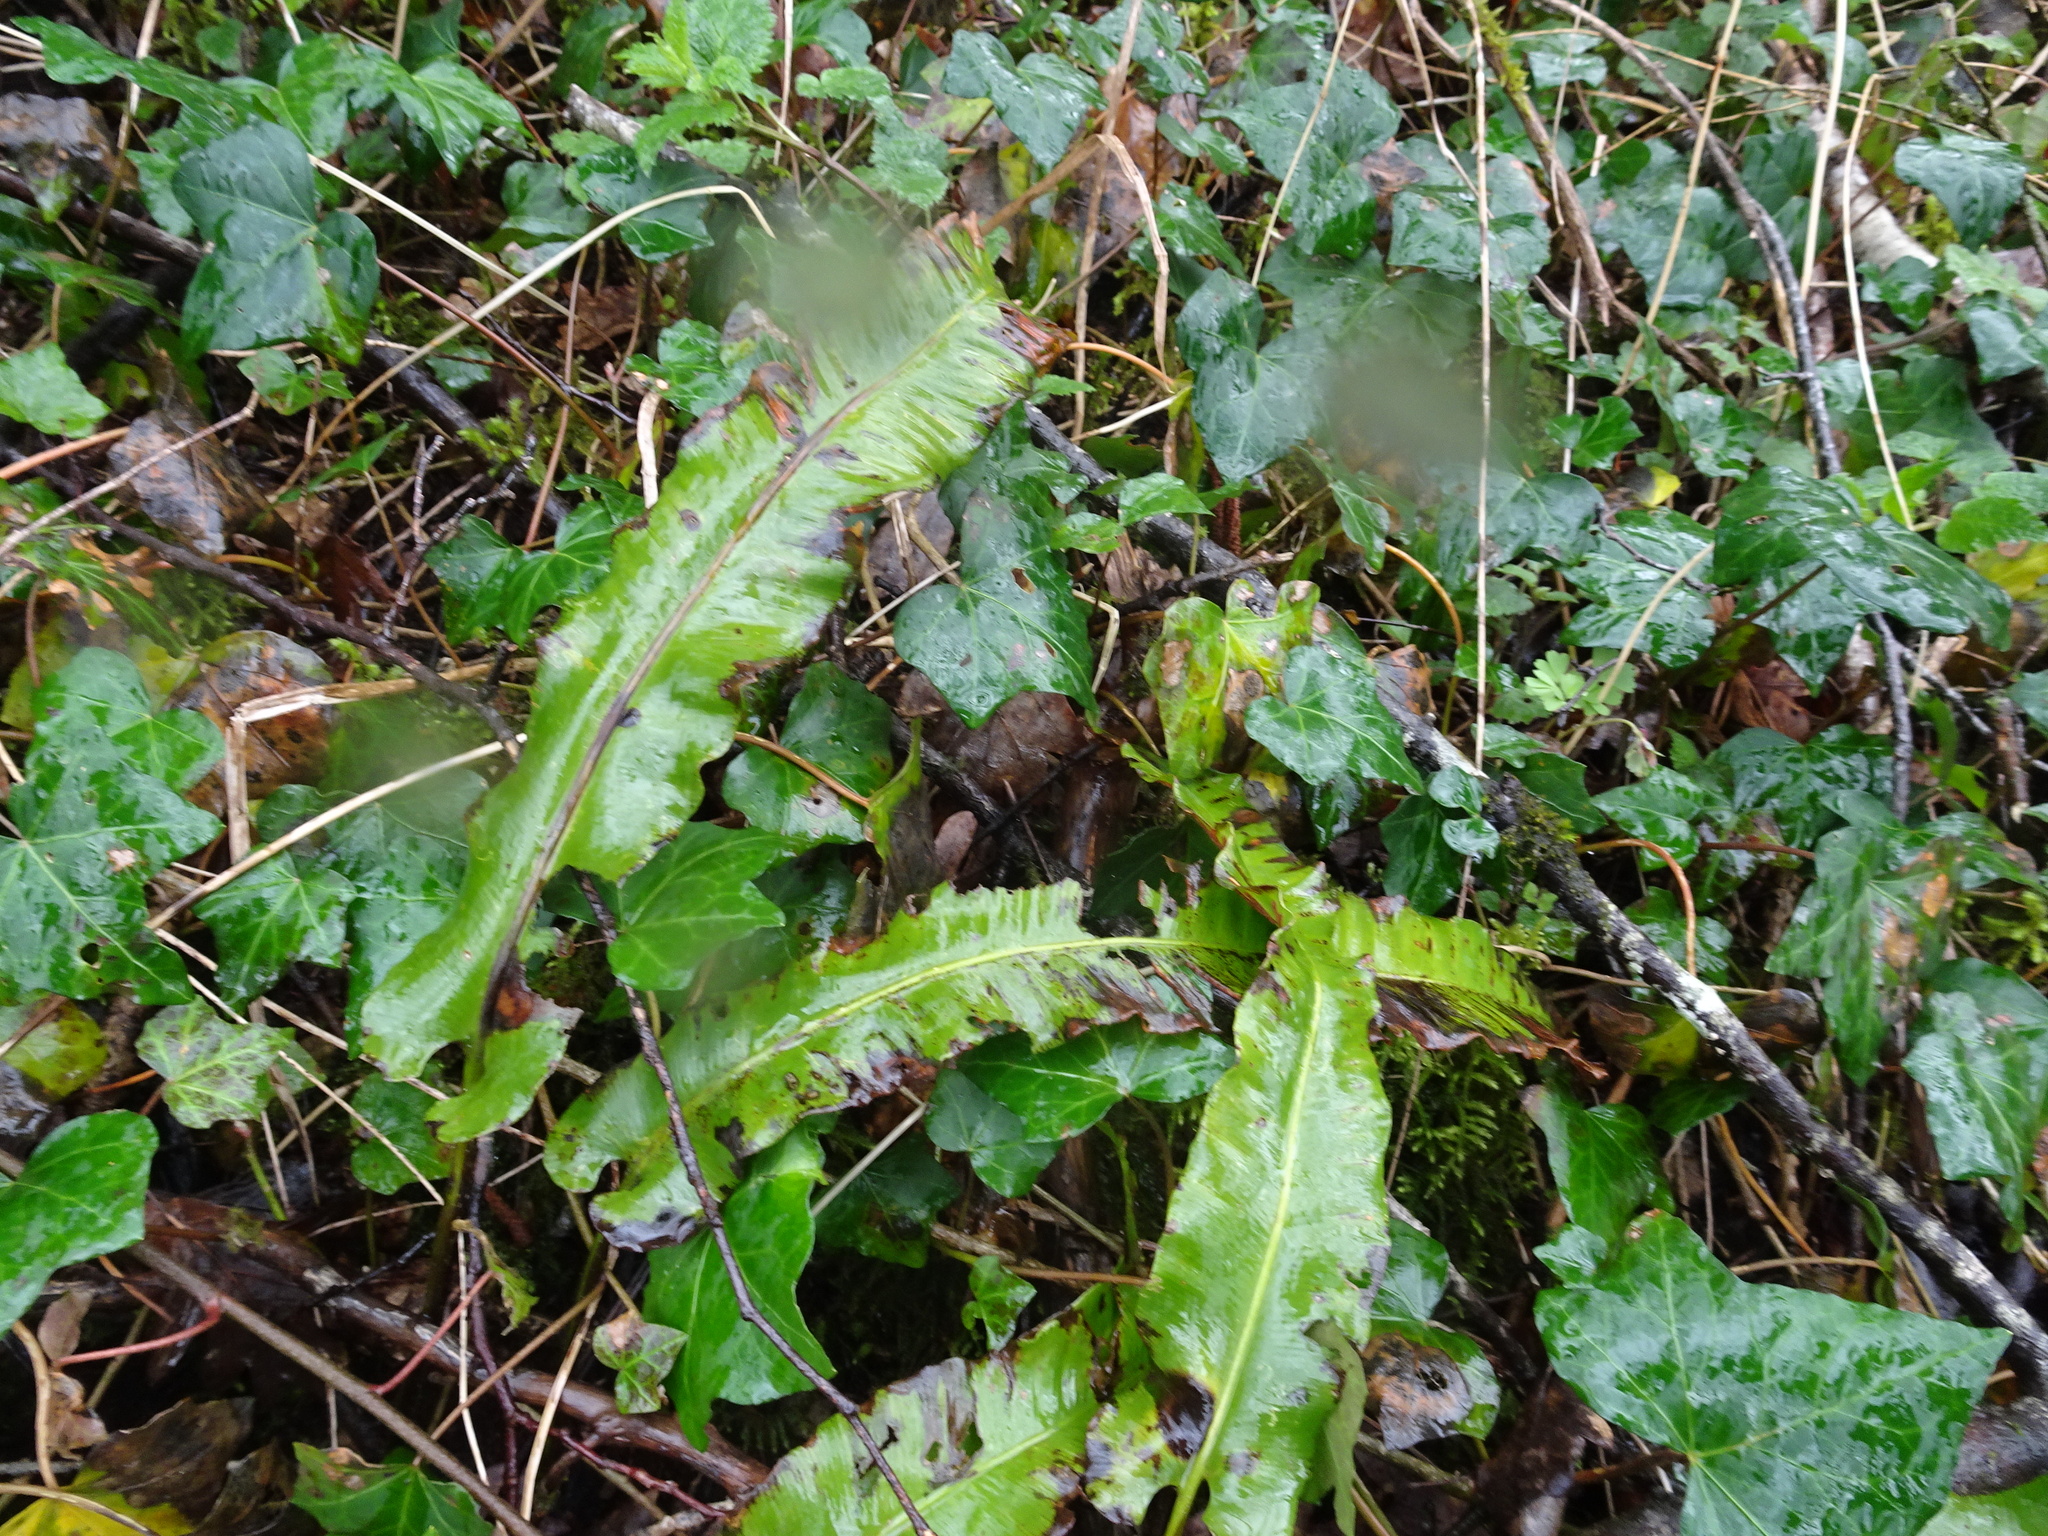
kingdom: Plantae
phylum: Tracheophyta
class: Polypodiopsida
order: Polypodiales
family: Aspleniaceae
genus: Asplenium
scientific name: Asplenium scolopendrium
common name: Hart's-tongue fern
